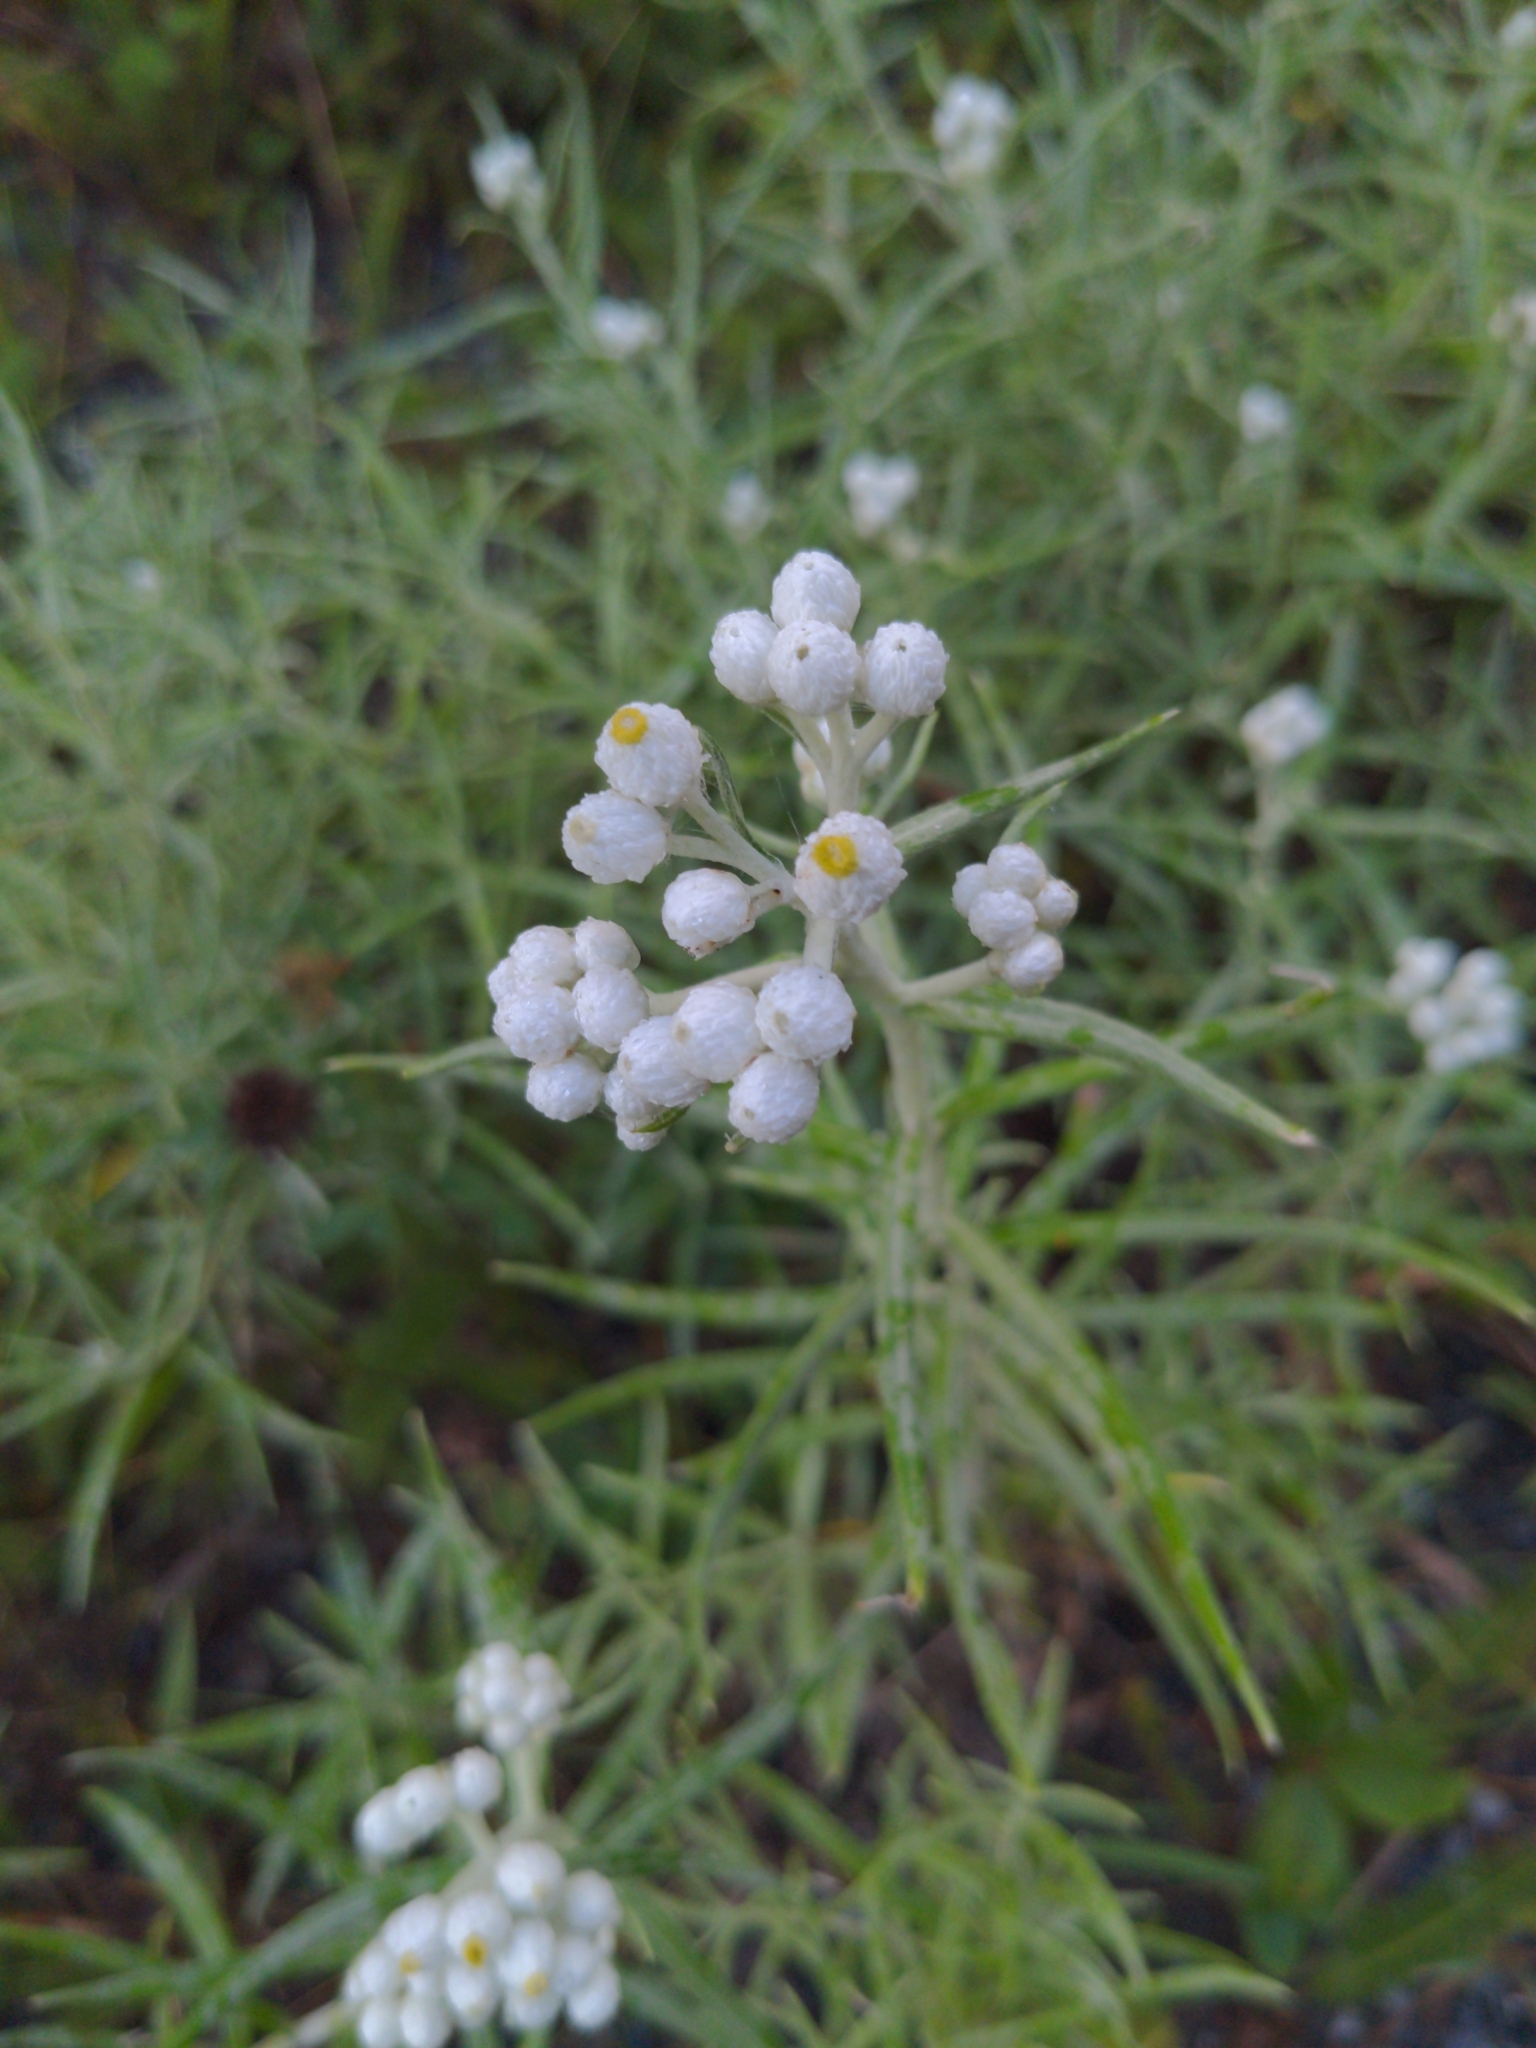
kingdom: Plantae
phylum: Tracheophyta
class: Magnoliopsida
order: Asterales
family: Asteraceae
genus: Anaphalis
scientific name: Anaphalis margaritacea
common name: Pearly everlasting
